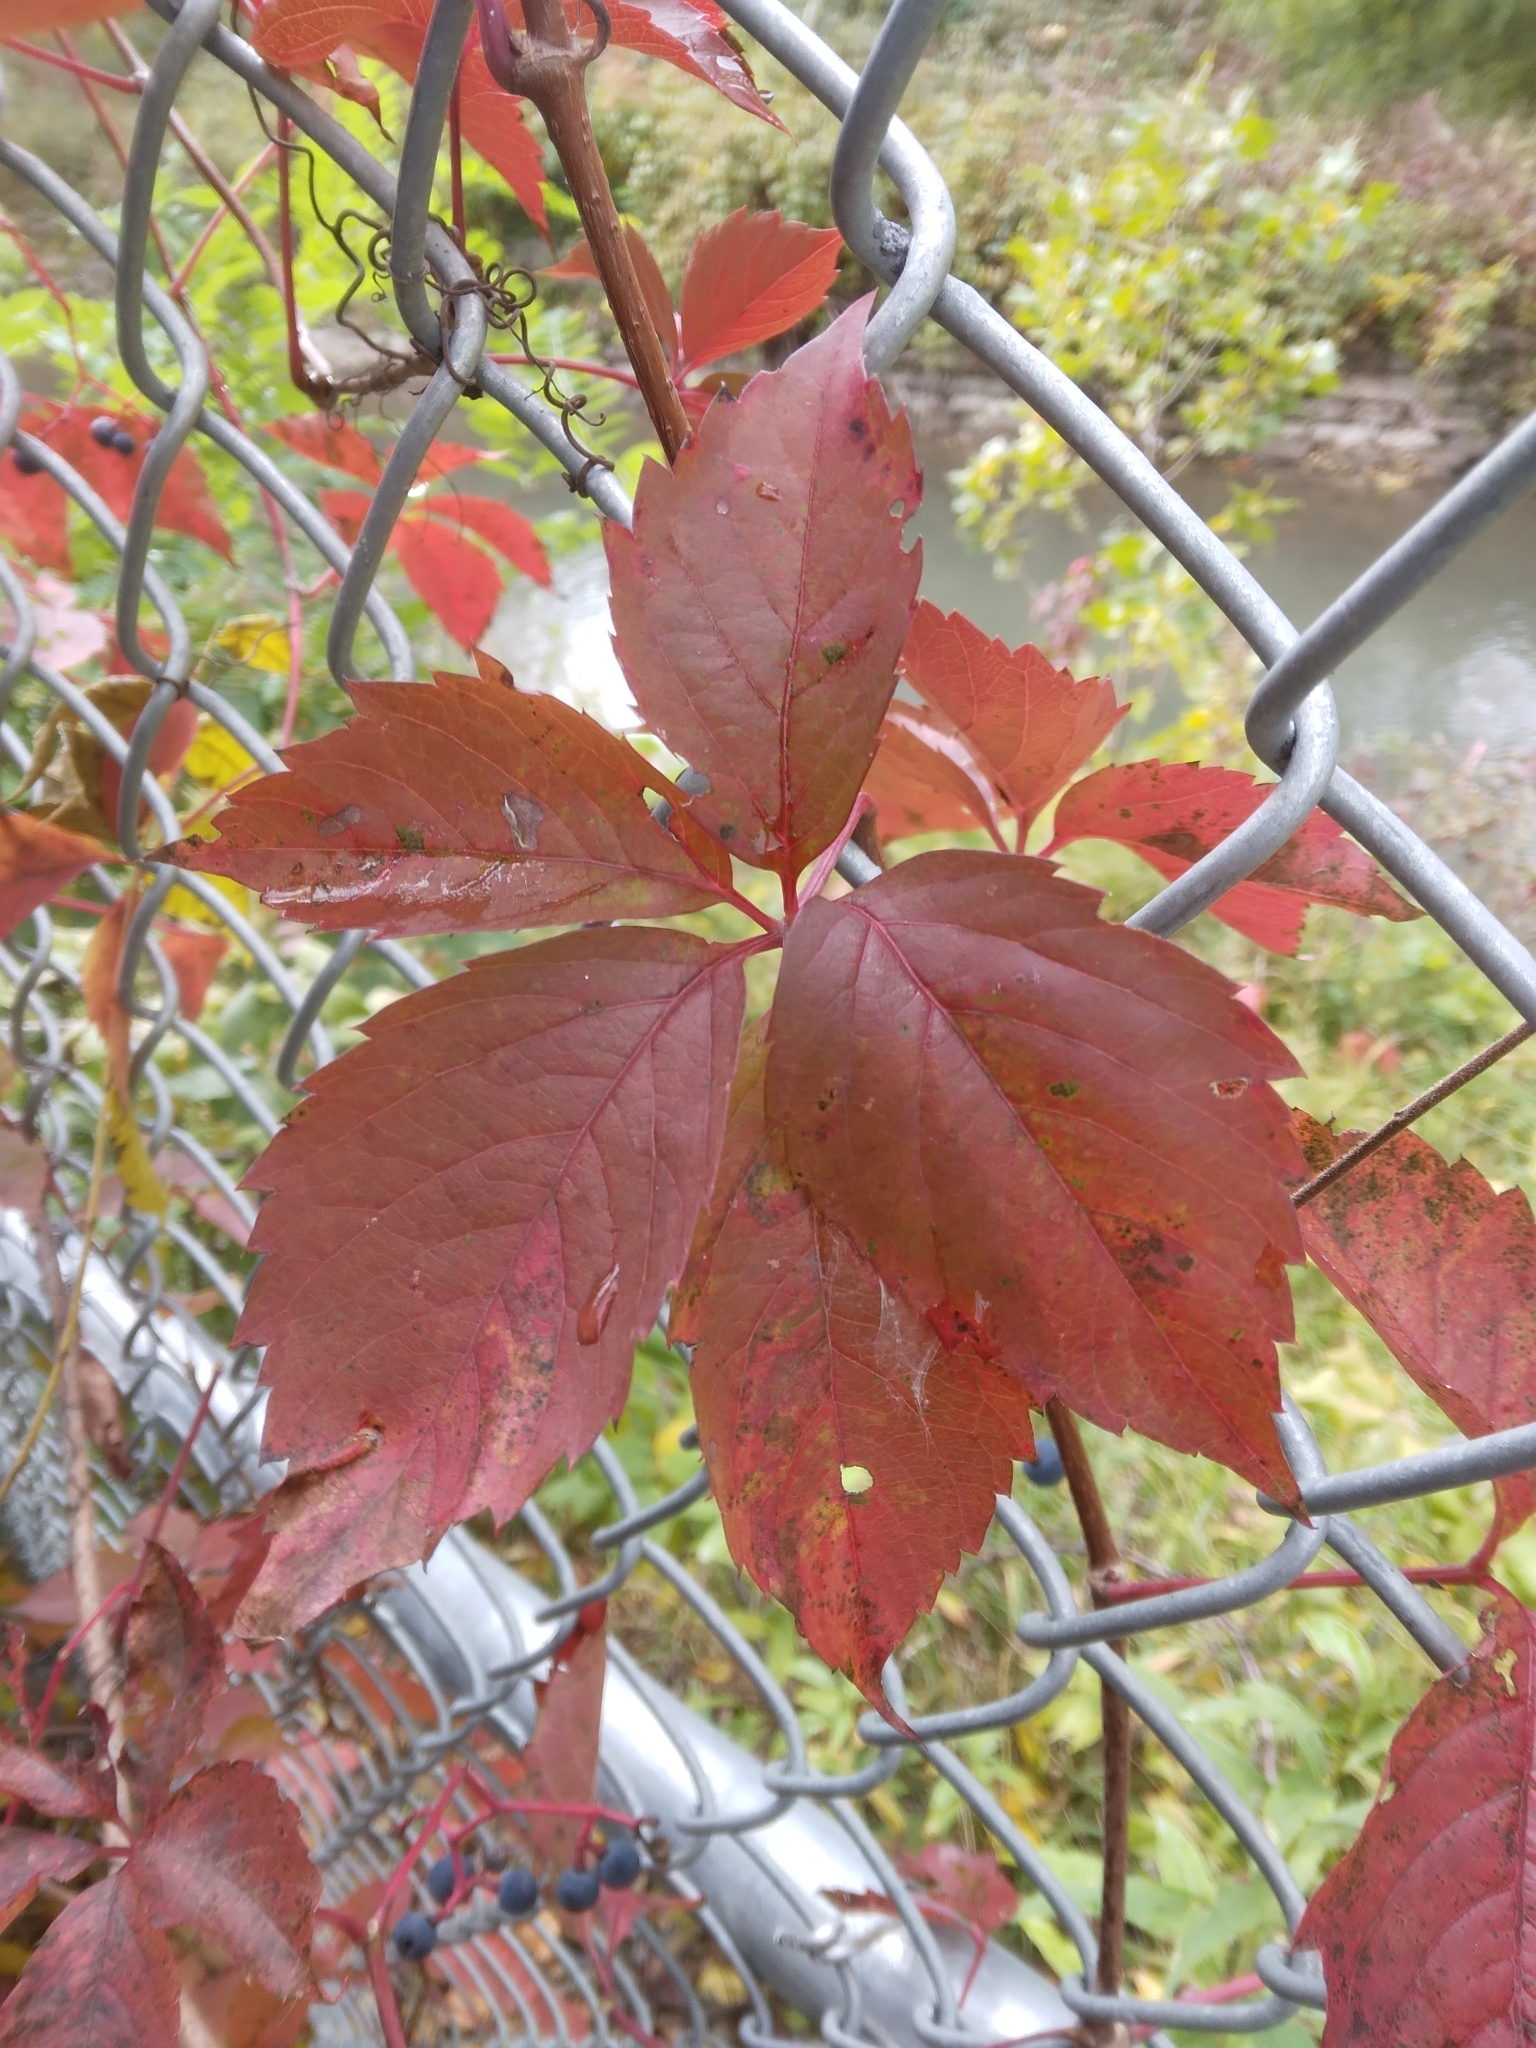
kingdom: Plantae
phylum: Tracheophyta
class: Magnoliopsida
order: Vitales
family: Vitaceae
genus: Parthenocissus
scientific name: Parthenocissus quinquefolia
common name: Virginia-creeper
